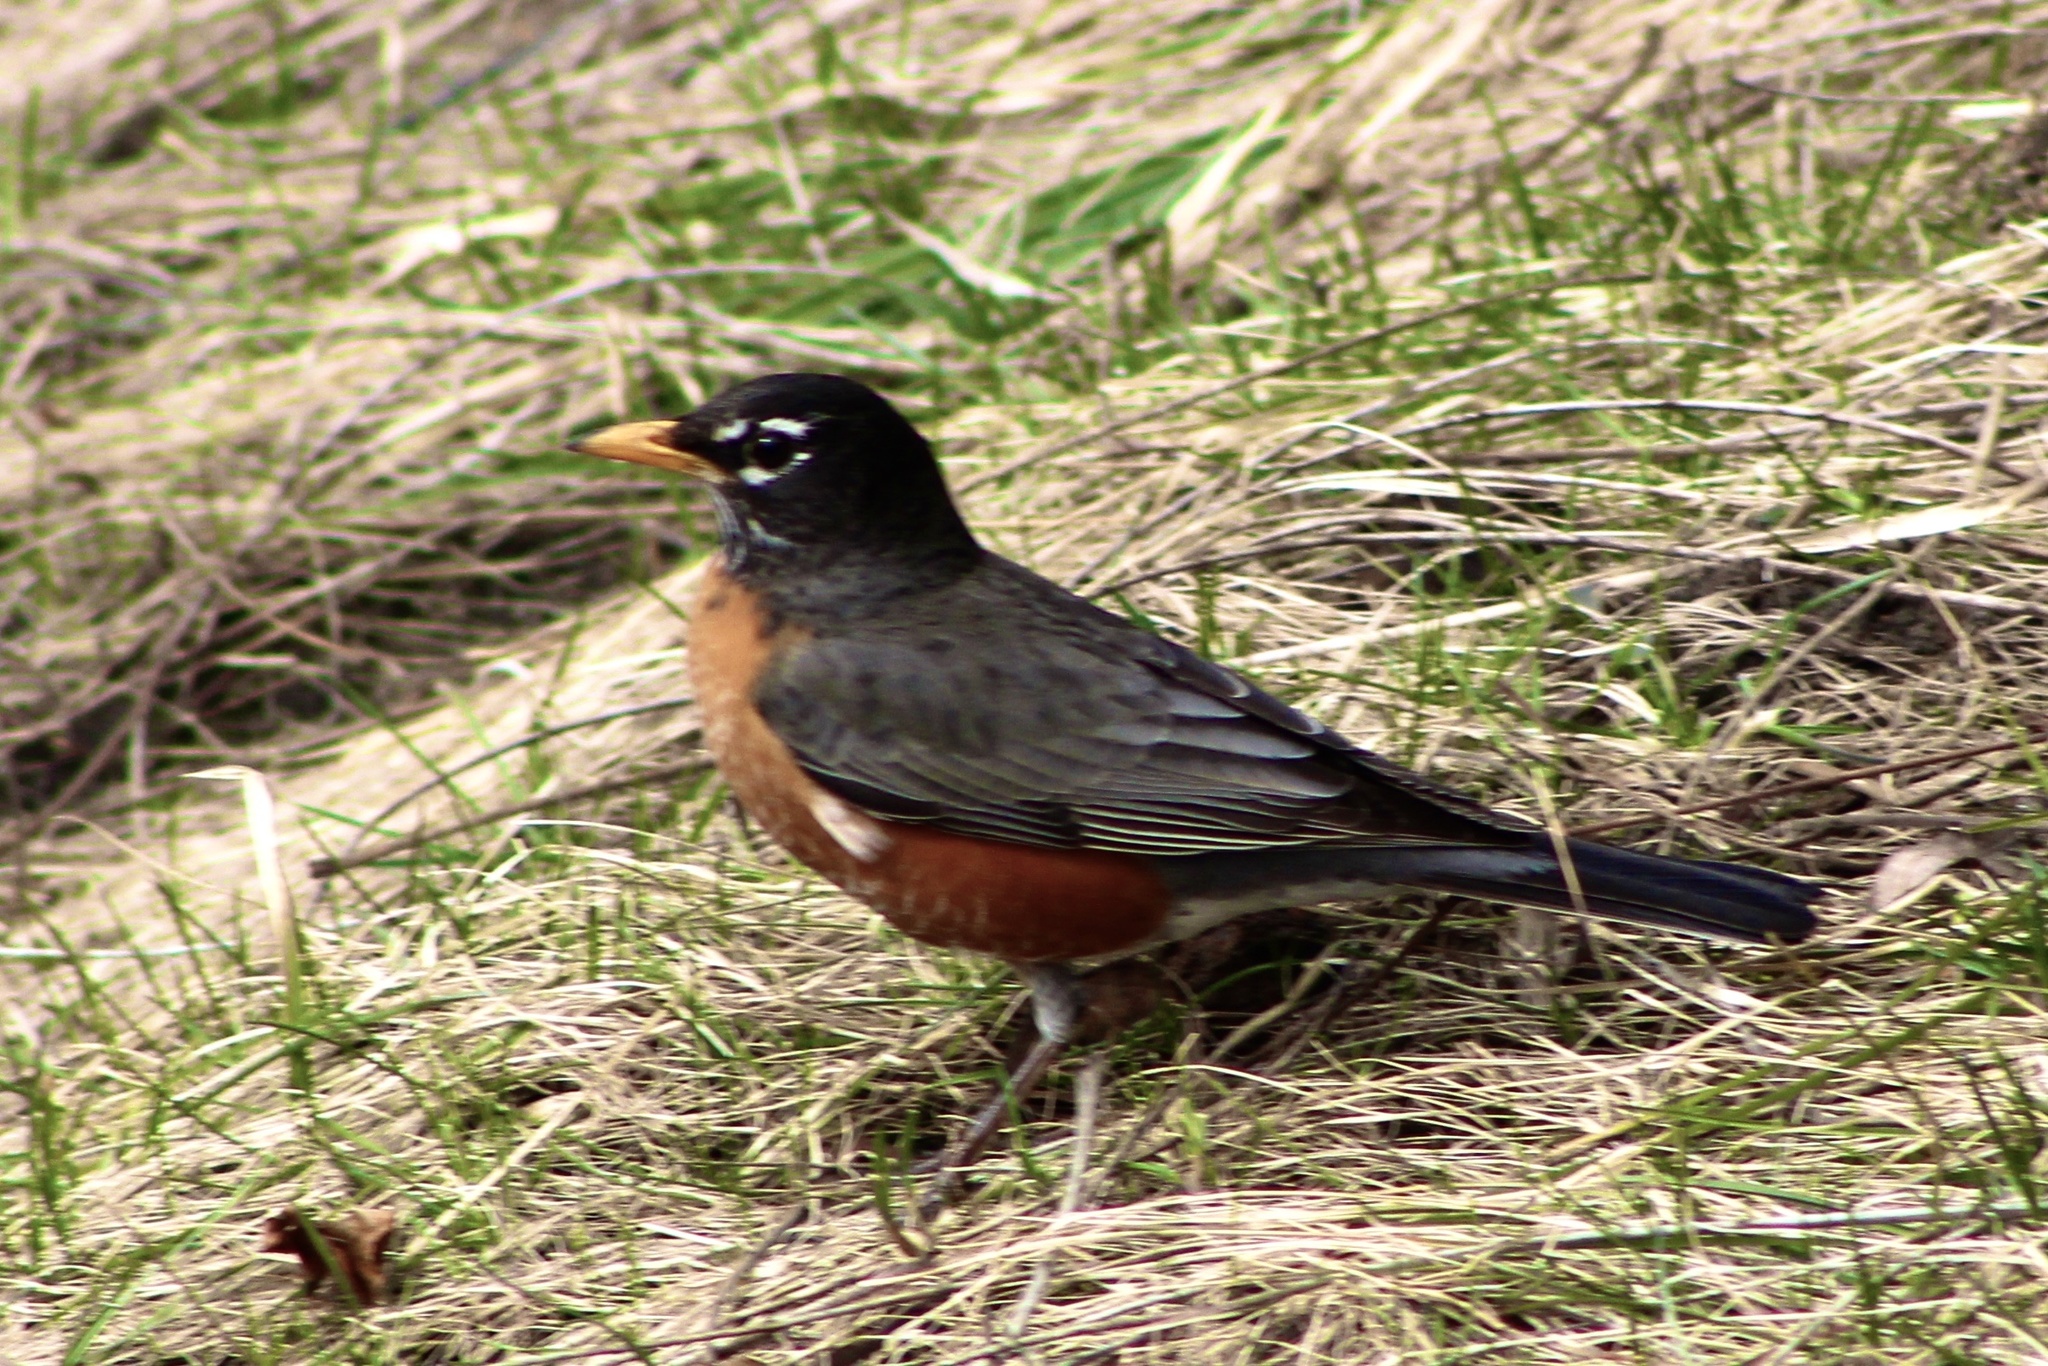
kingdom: Animalia
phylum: Chordata
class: Aves
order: Passeriformes
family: Turdidae
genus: Turdus
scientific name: Turdus migratorius
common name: American robin
